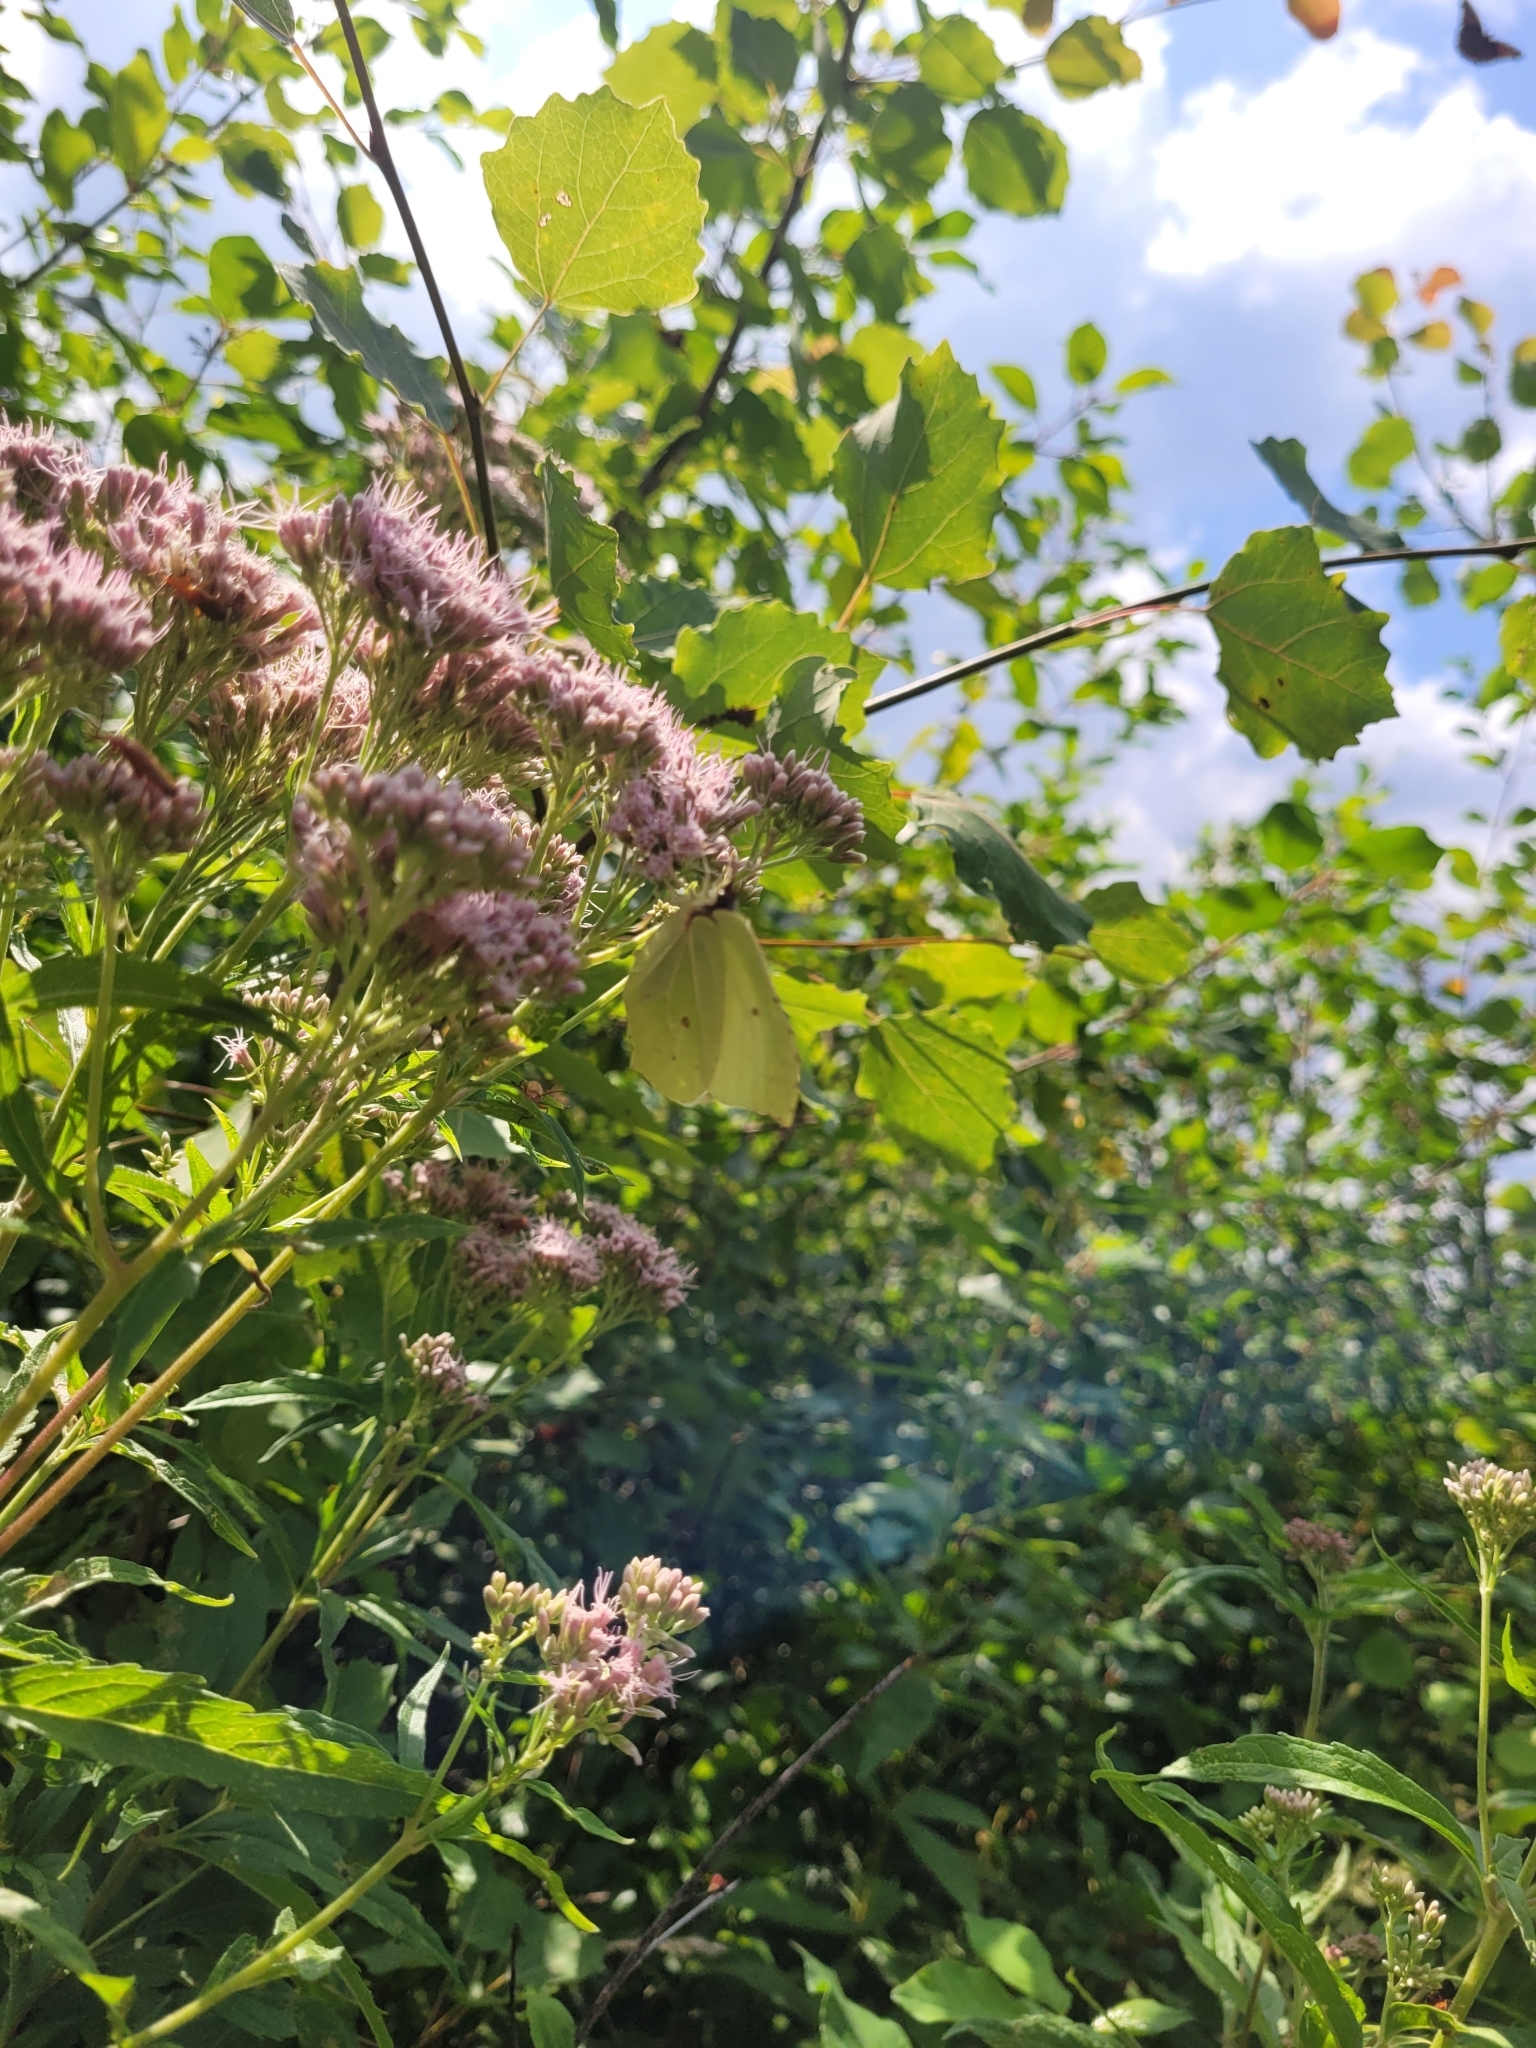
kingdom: Animalia
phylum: Arthropoda
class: Insecta
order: Lepidoptera
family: Pieridae
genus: Gonepteryx
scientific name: Gonepteryx rhamni
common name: Brimstone
